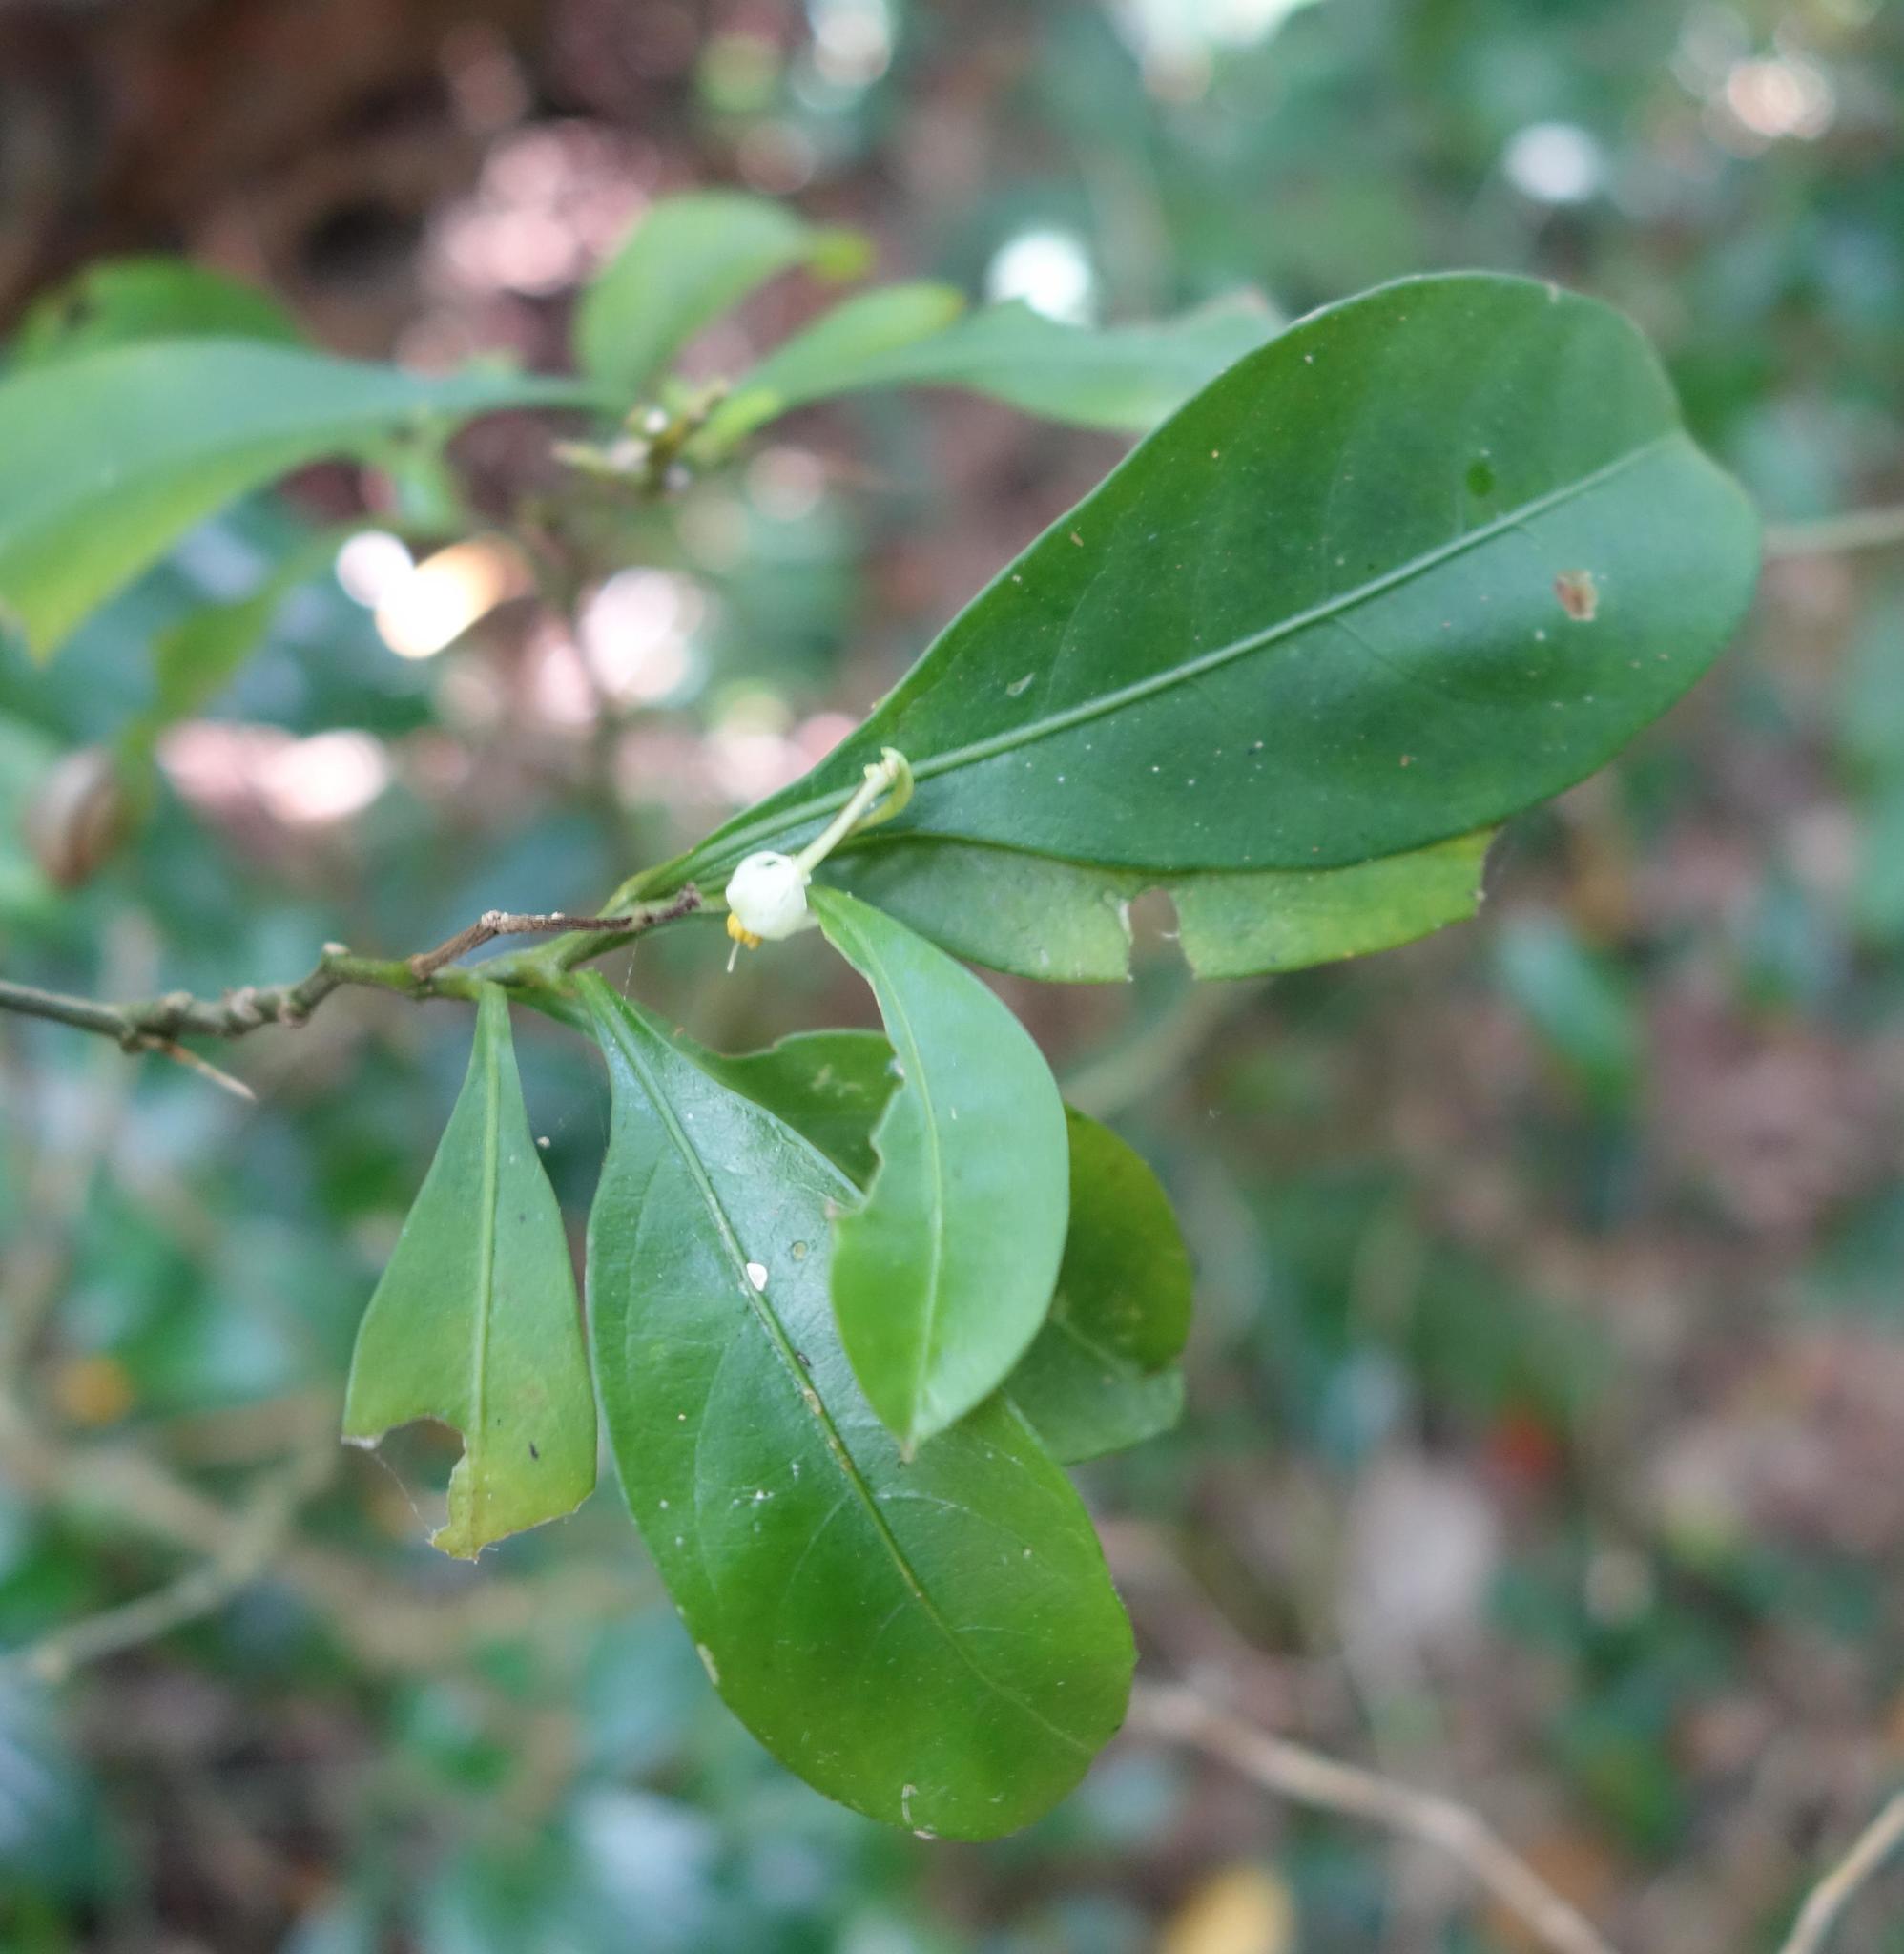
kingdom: Plantae
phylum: Tracheophyta
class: Magnoliopsida
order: Solanales
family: Solanaceae
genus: Solanum
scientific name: Solanum diphyllum
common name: Twoleaf nightshade
